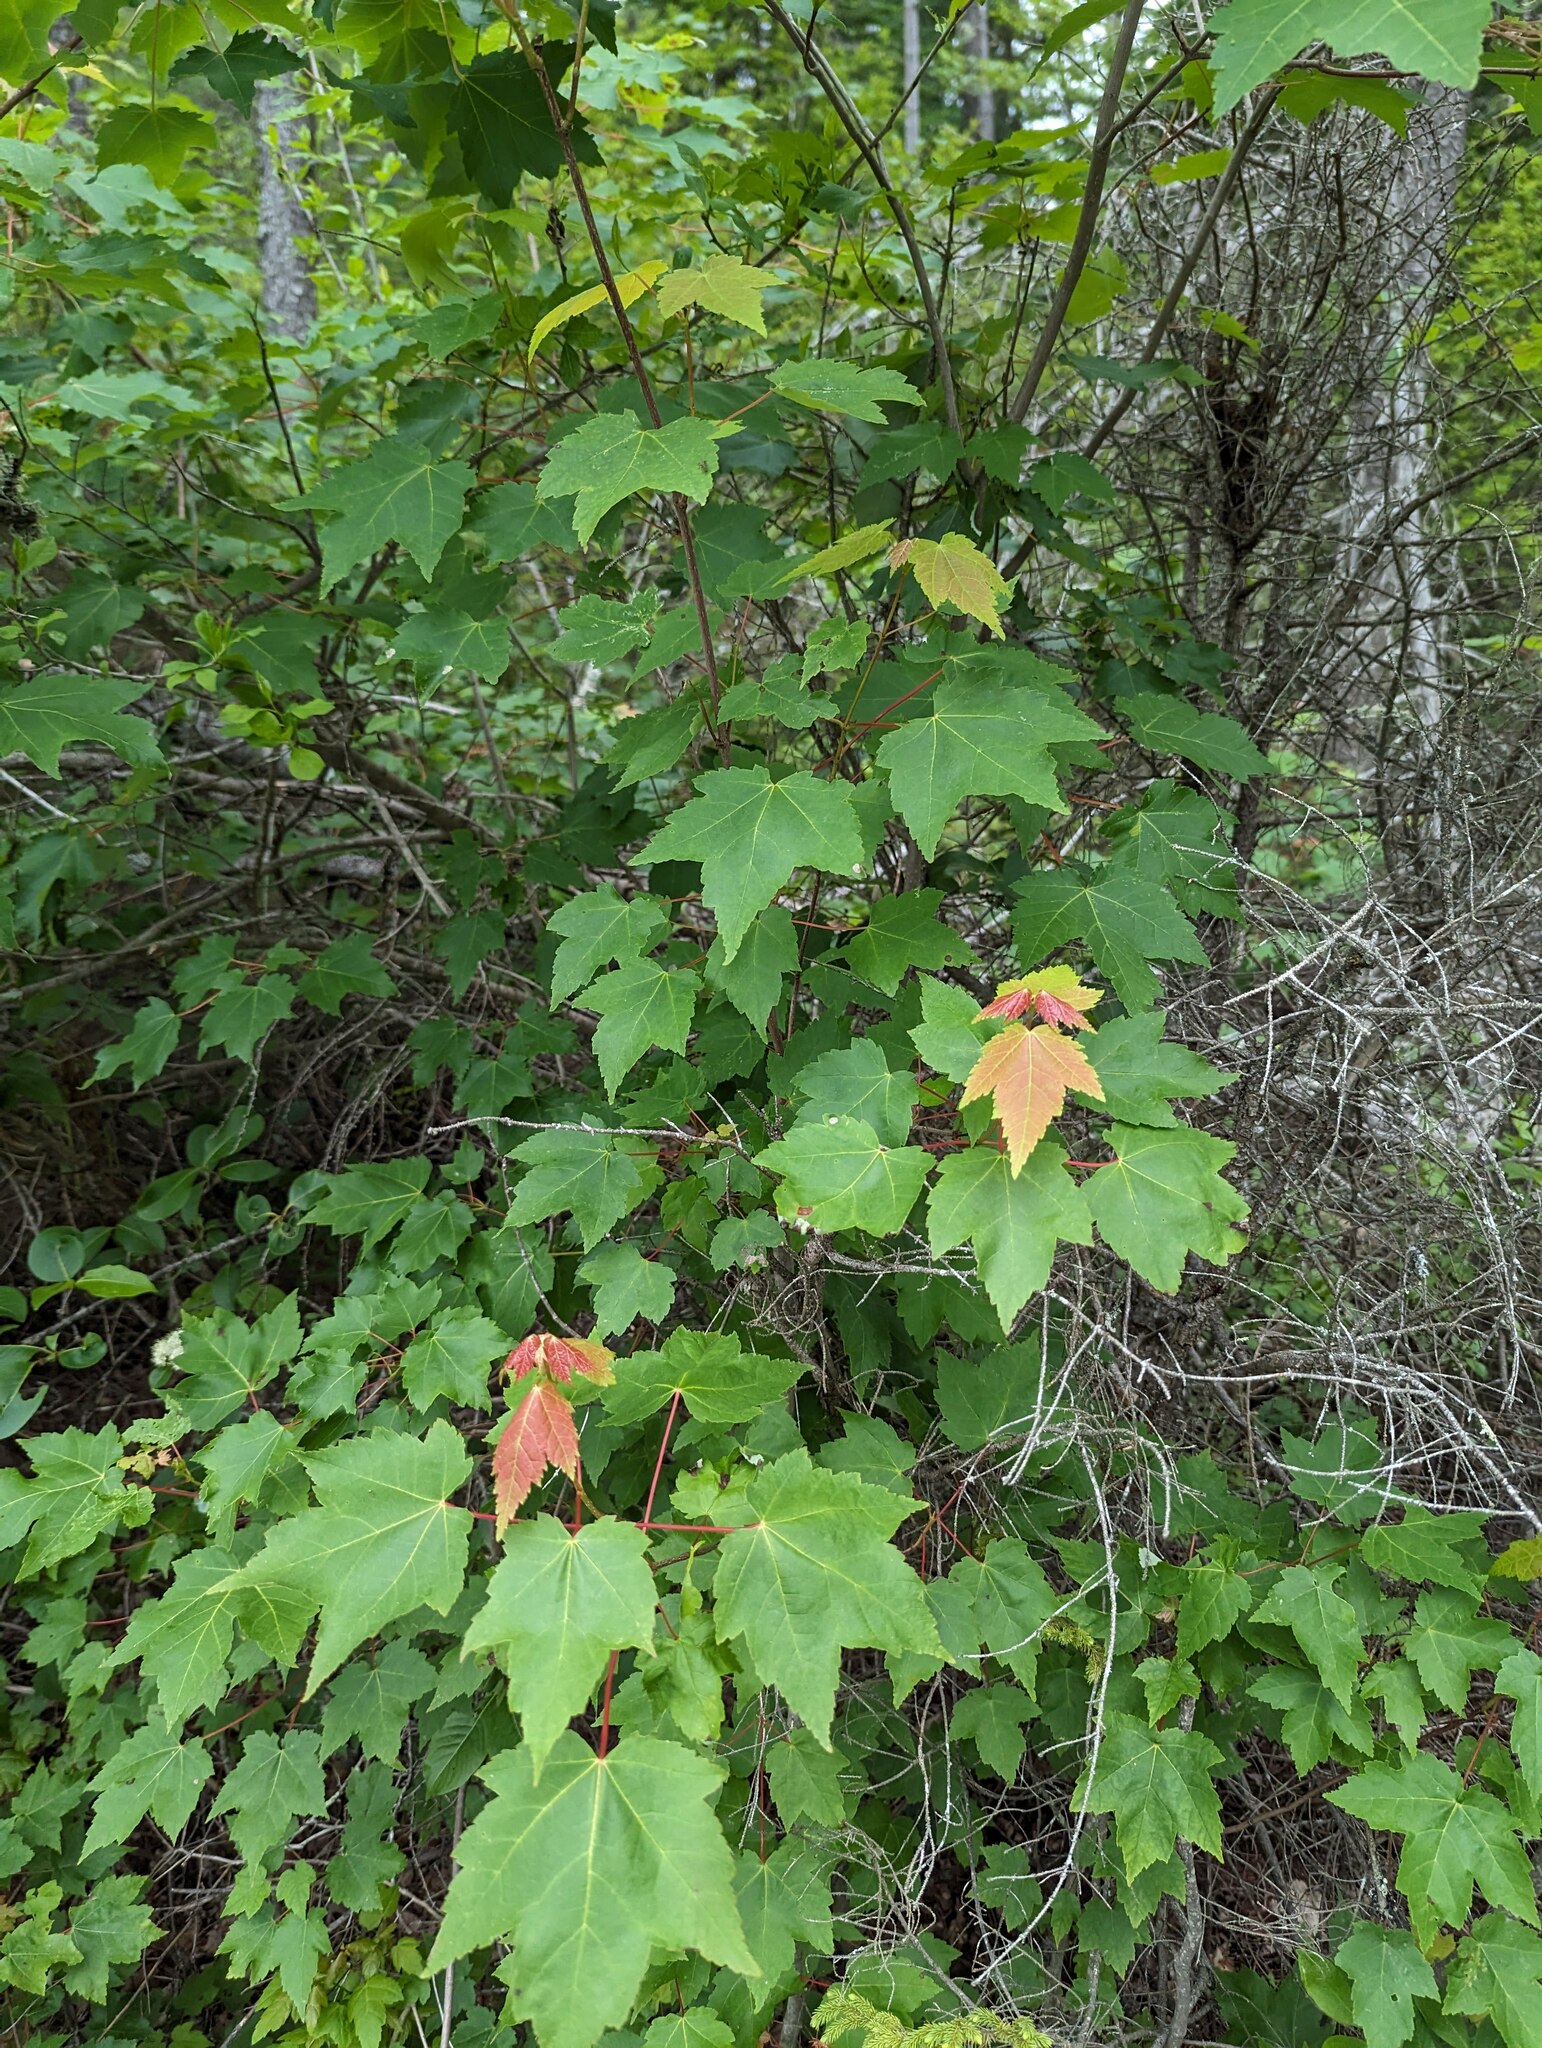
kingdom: Plantae
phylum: Tracheophyta
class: Magnoliopsida
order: Sapindales
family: Sapindaceae
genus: Acer
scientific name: Acer rubrum
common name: Red maple
